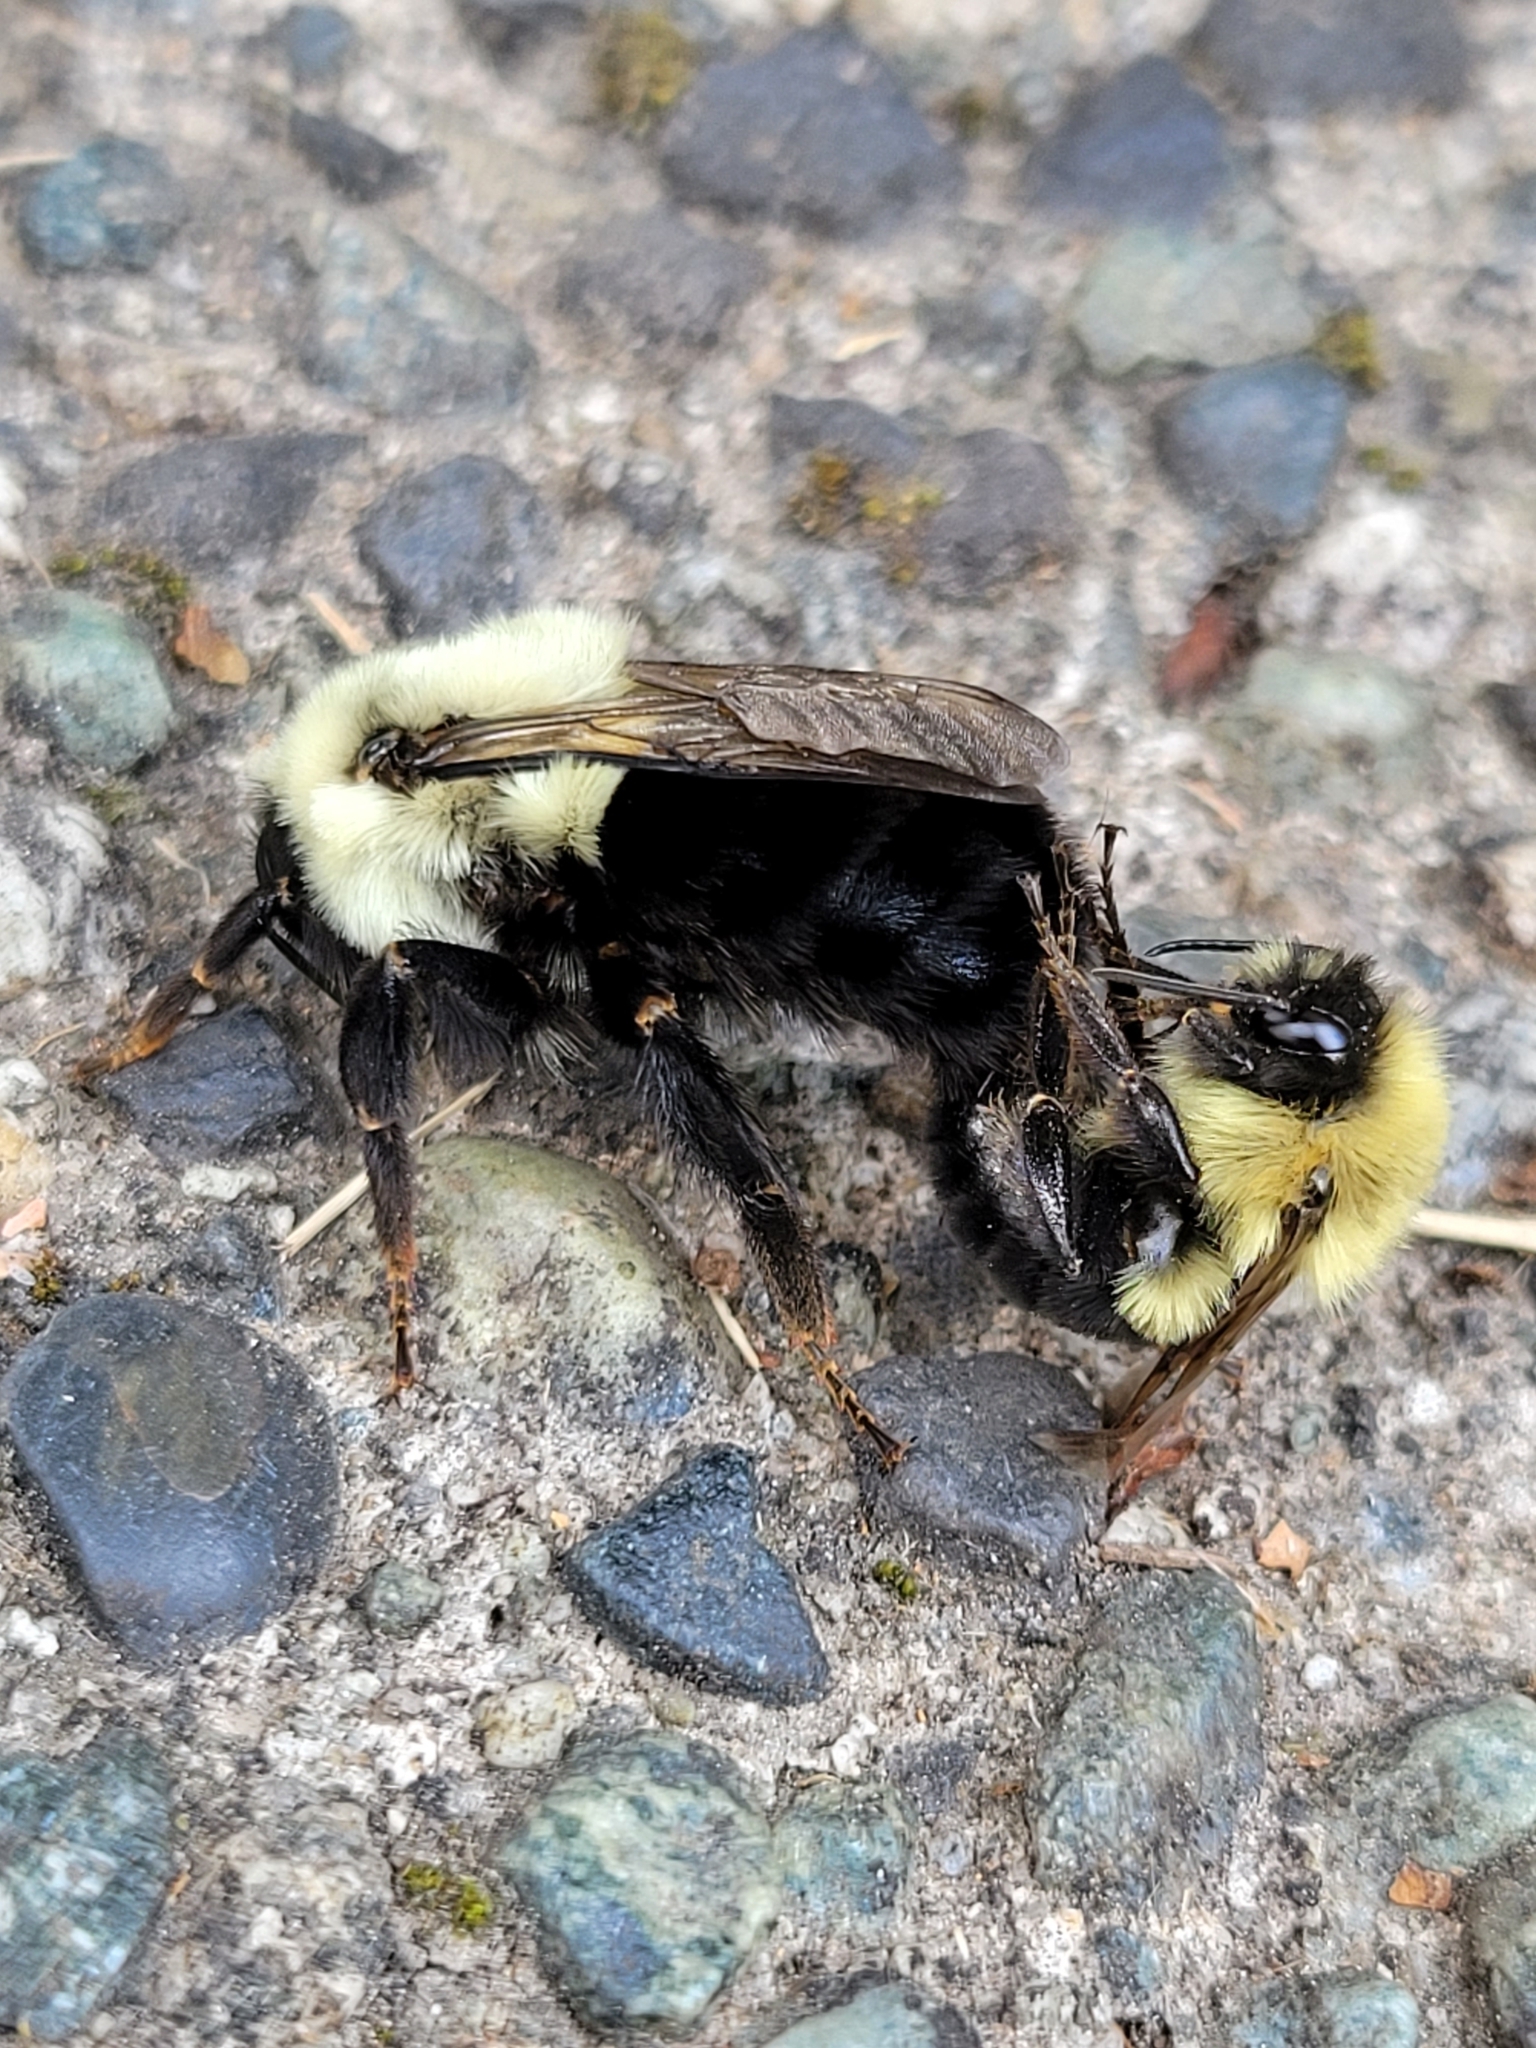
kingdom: Animalia
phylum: Arthropoda
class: Insecta
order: Hymenoptera
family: Apidae
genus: Bombus
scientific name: Bombus impatiens
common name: Common eastern bumble bee
